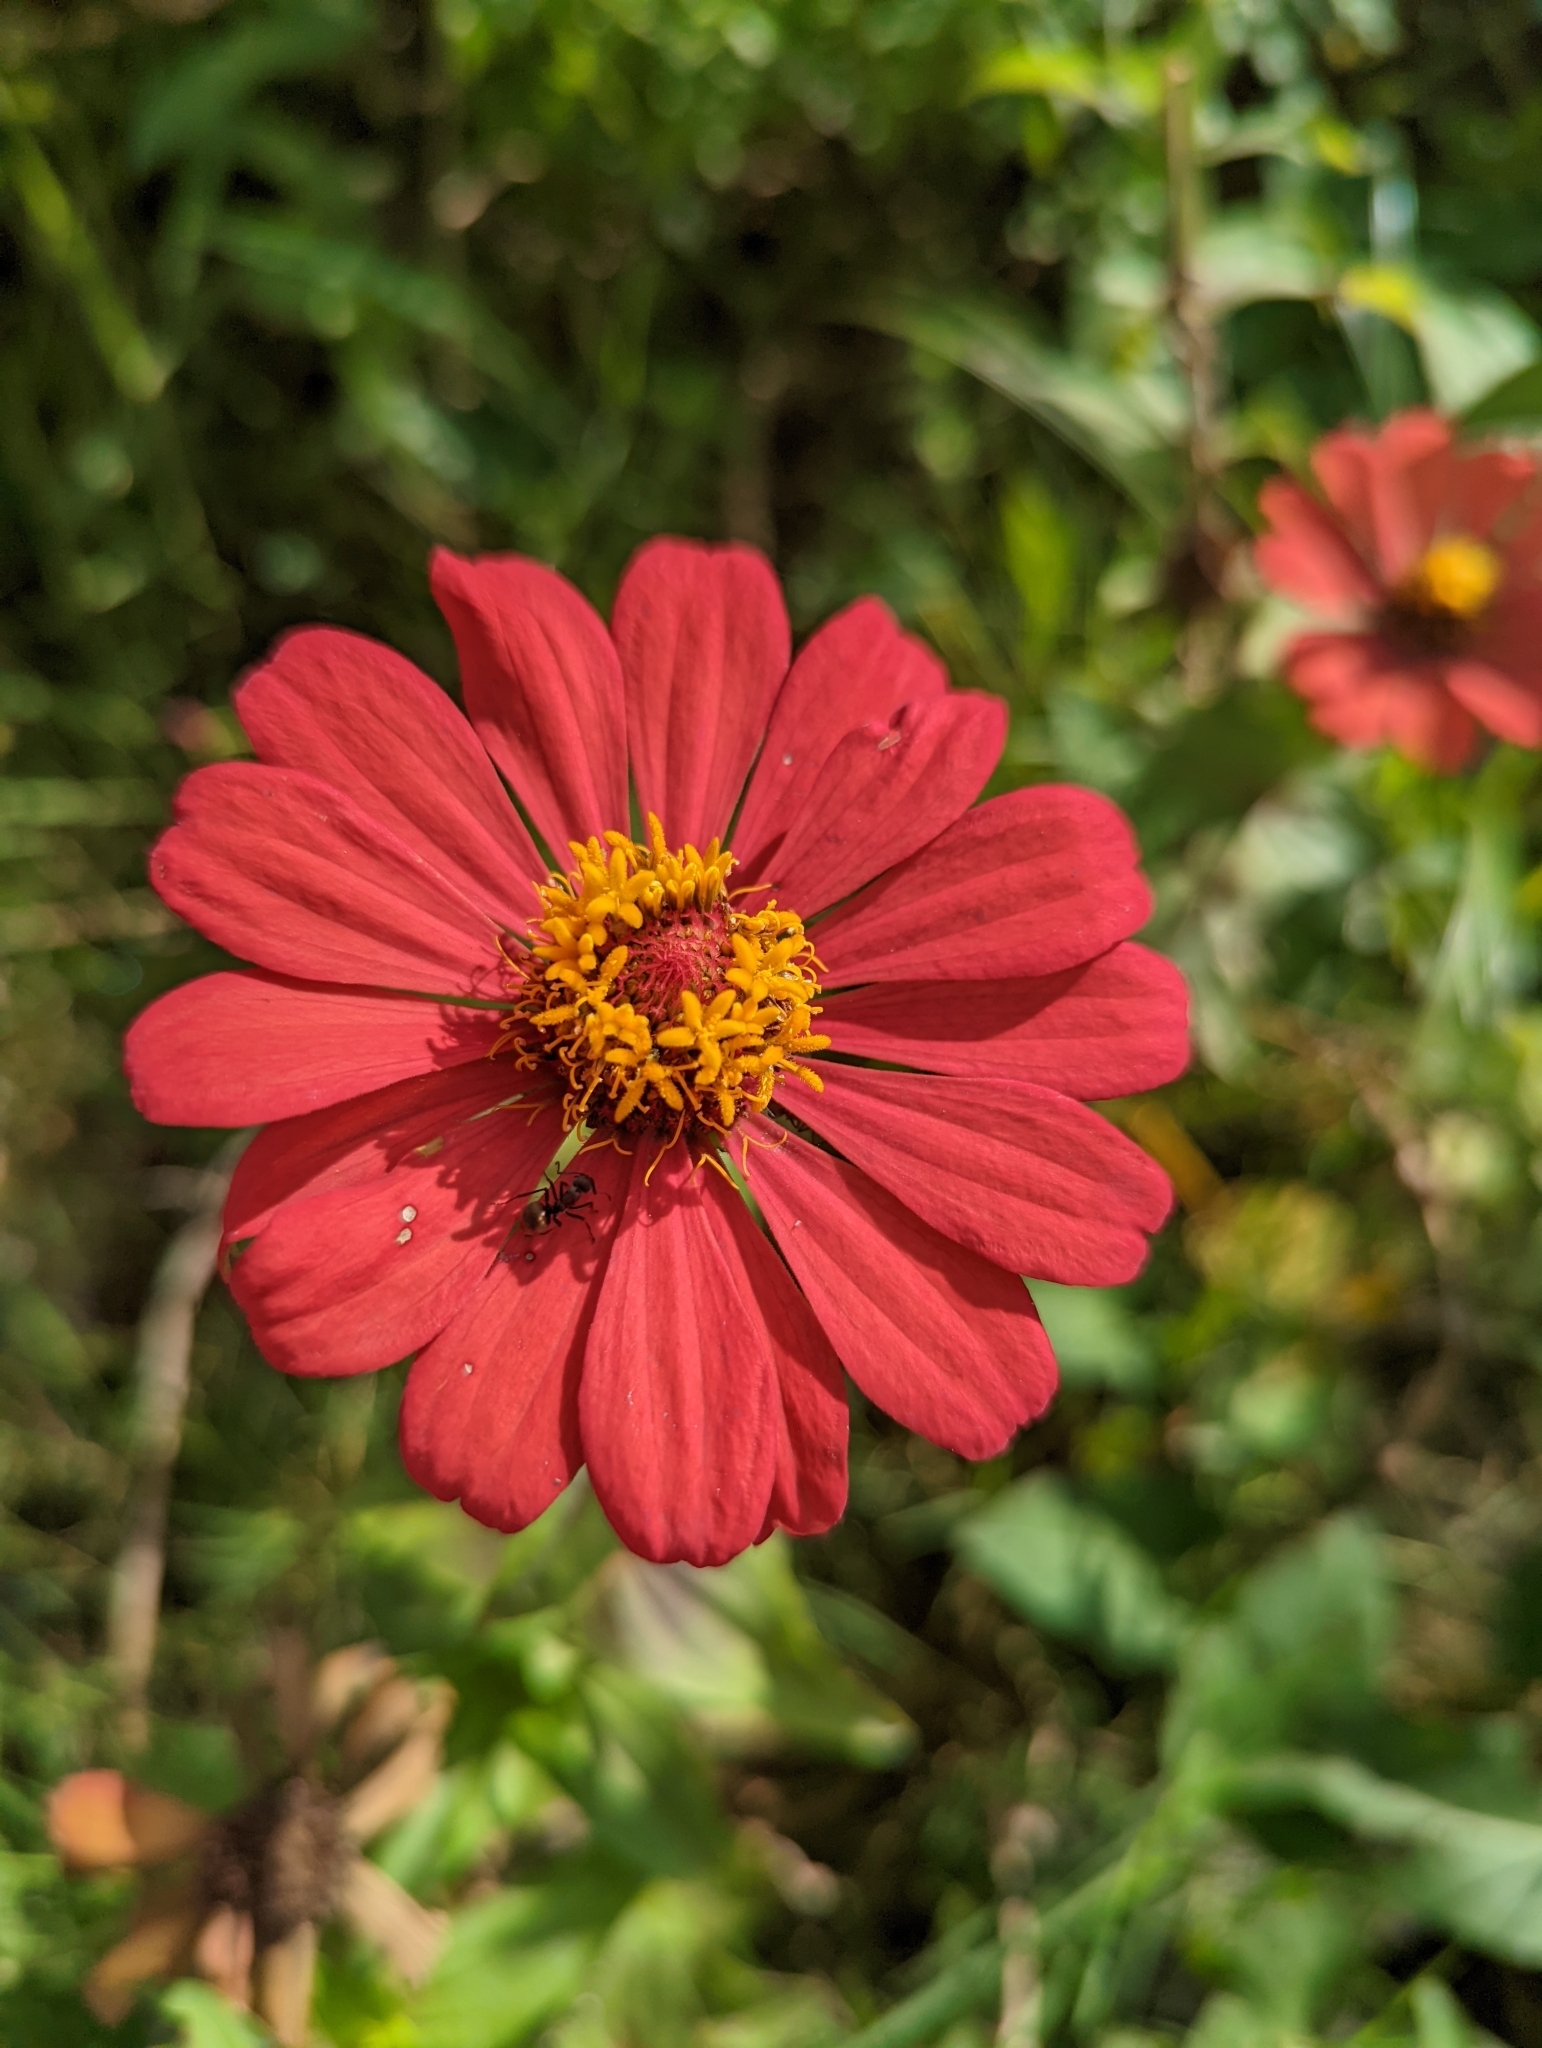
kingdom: Plantae
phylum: Tracheophyta
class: Magnoliopsida
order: Asterales
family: Asteraceae
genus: Zinnia
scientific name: Zinnia elegans
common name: Youth-and-age
